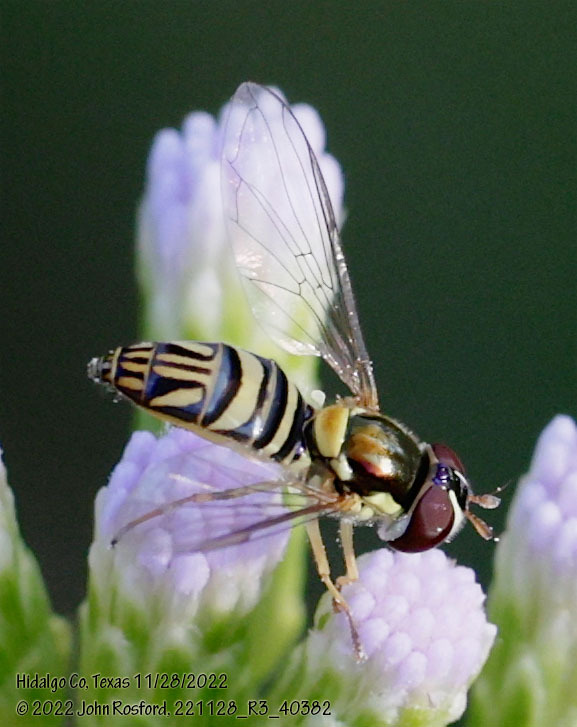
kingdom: Animalia
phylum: Arthropoda
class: Insecta
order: Diptera
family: Syrphidae
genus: Allograpta
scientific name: Allograpta obliqua
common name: Common oblique syrphid
